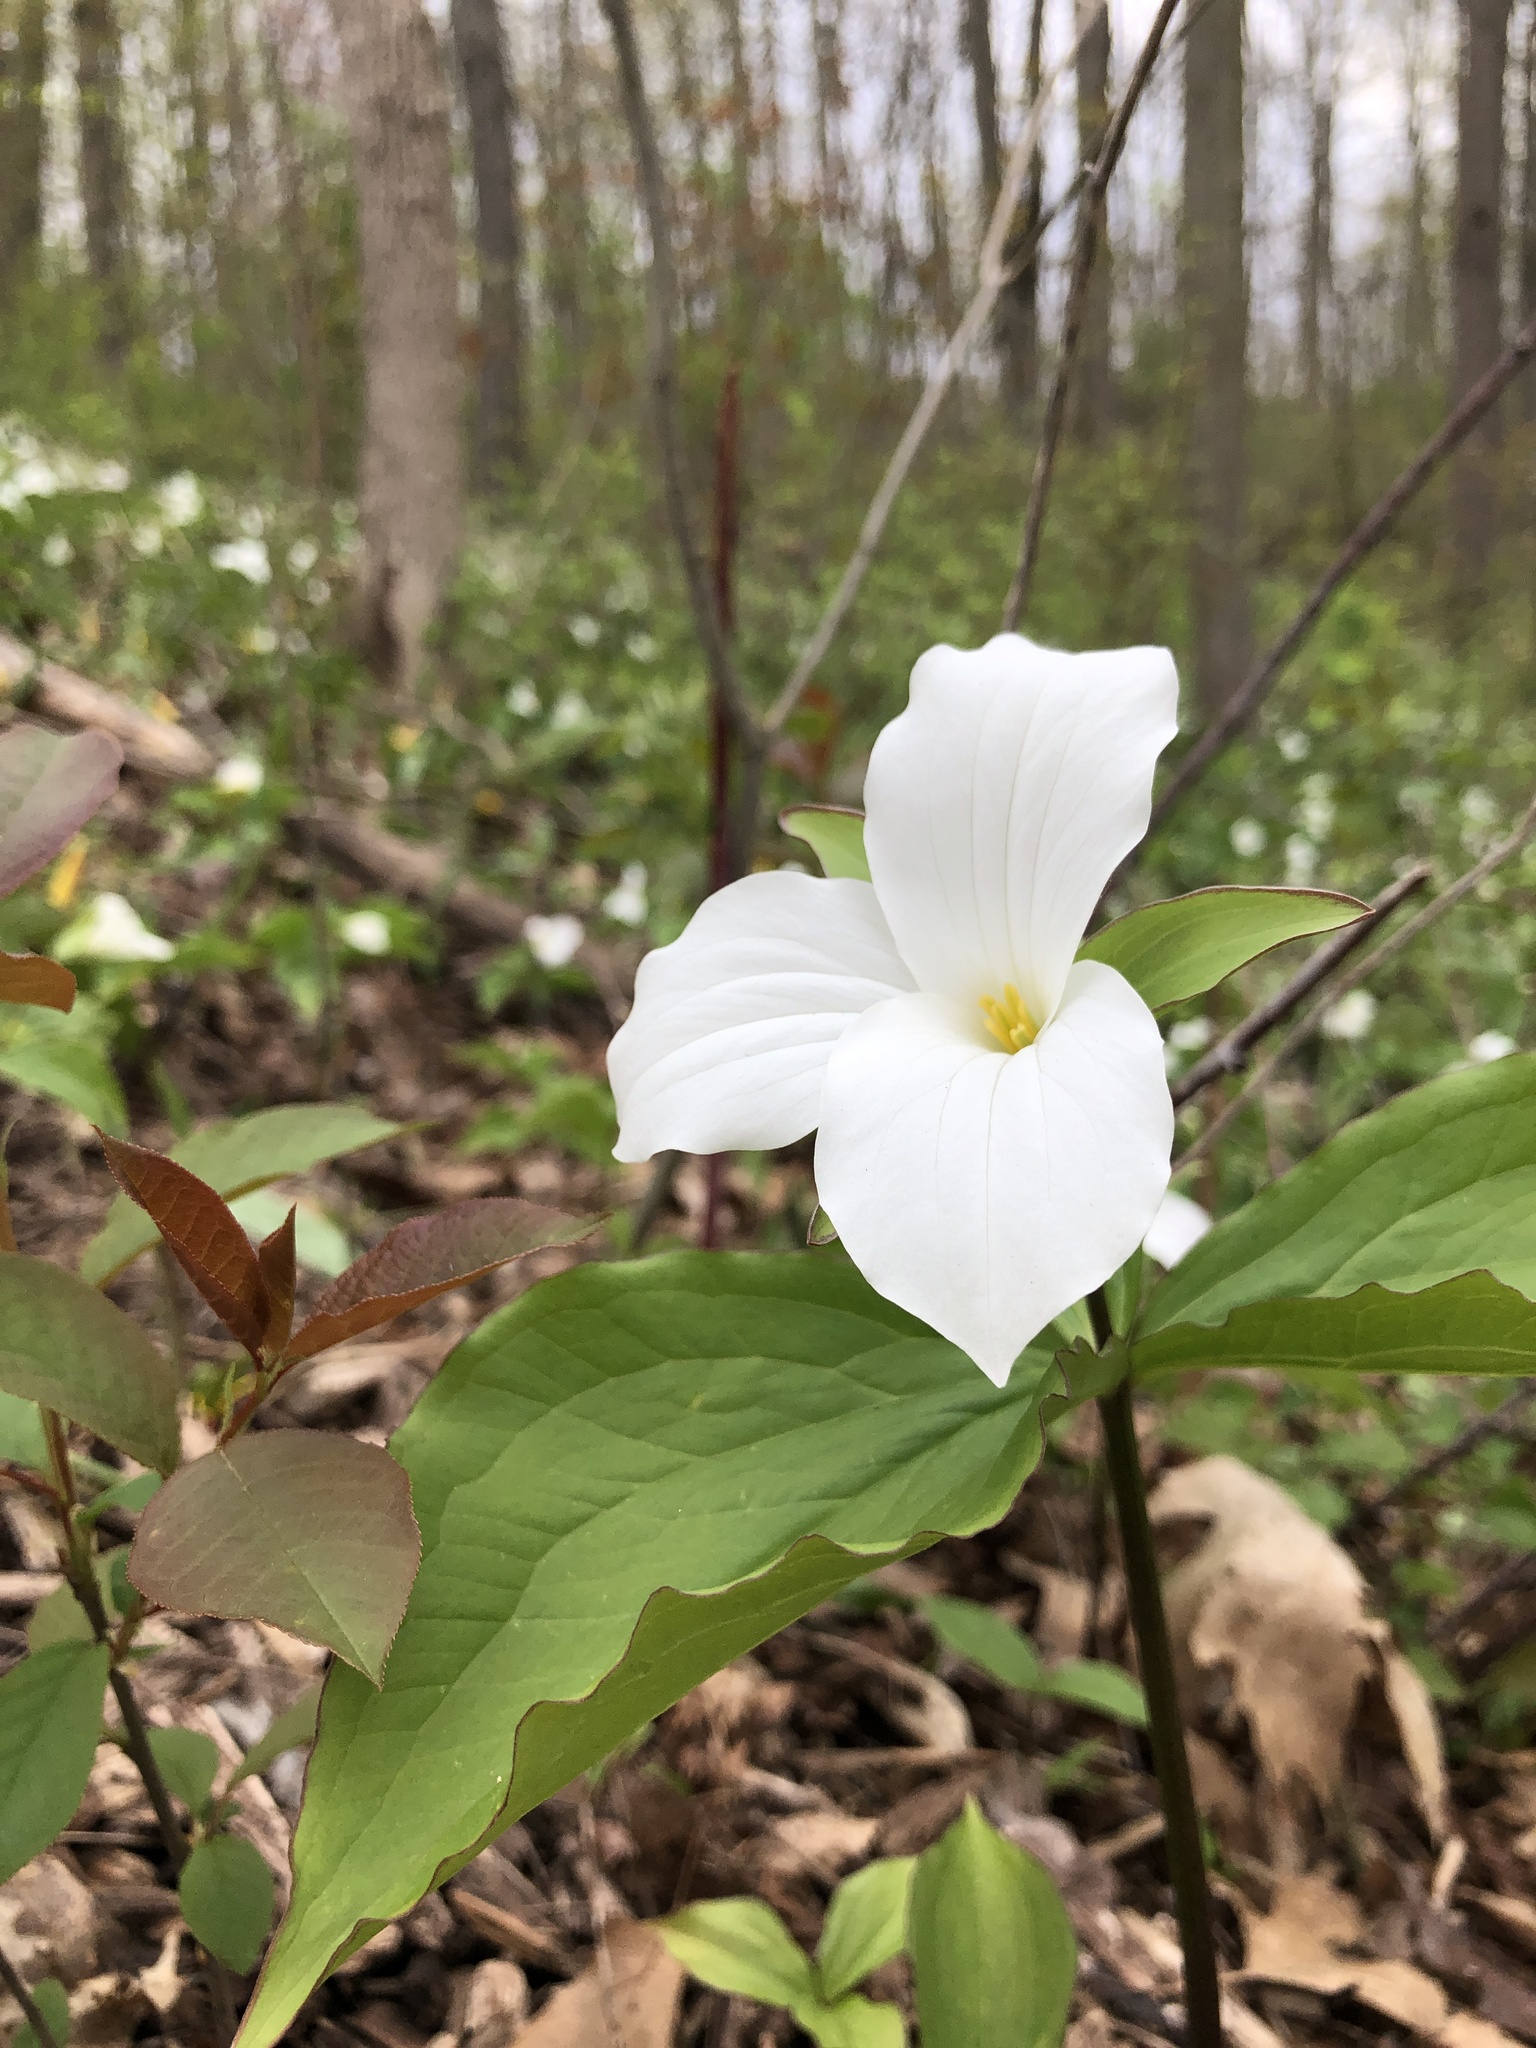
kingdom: Plantae
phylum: Tracheophyta
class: Liliopsida
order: Liliales
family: Melanthiaceae
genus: Trillium
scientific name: Trillium grandiflorum
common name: Great white trillium
